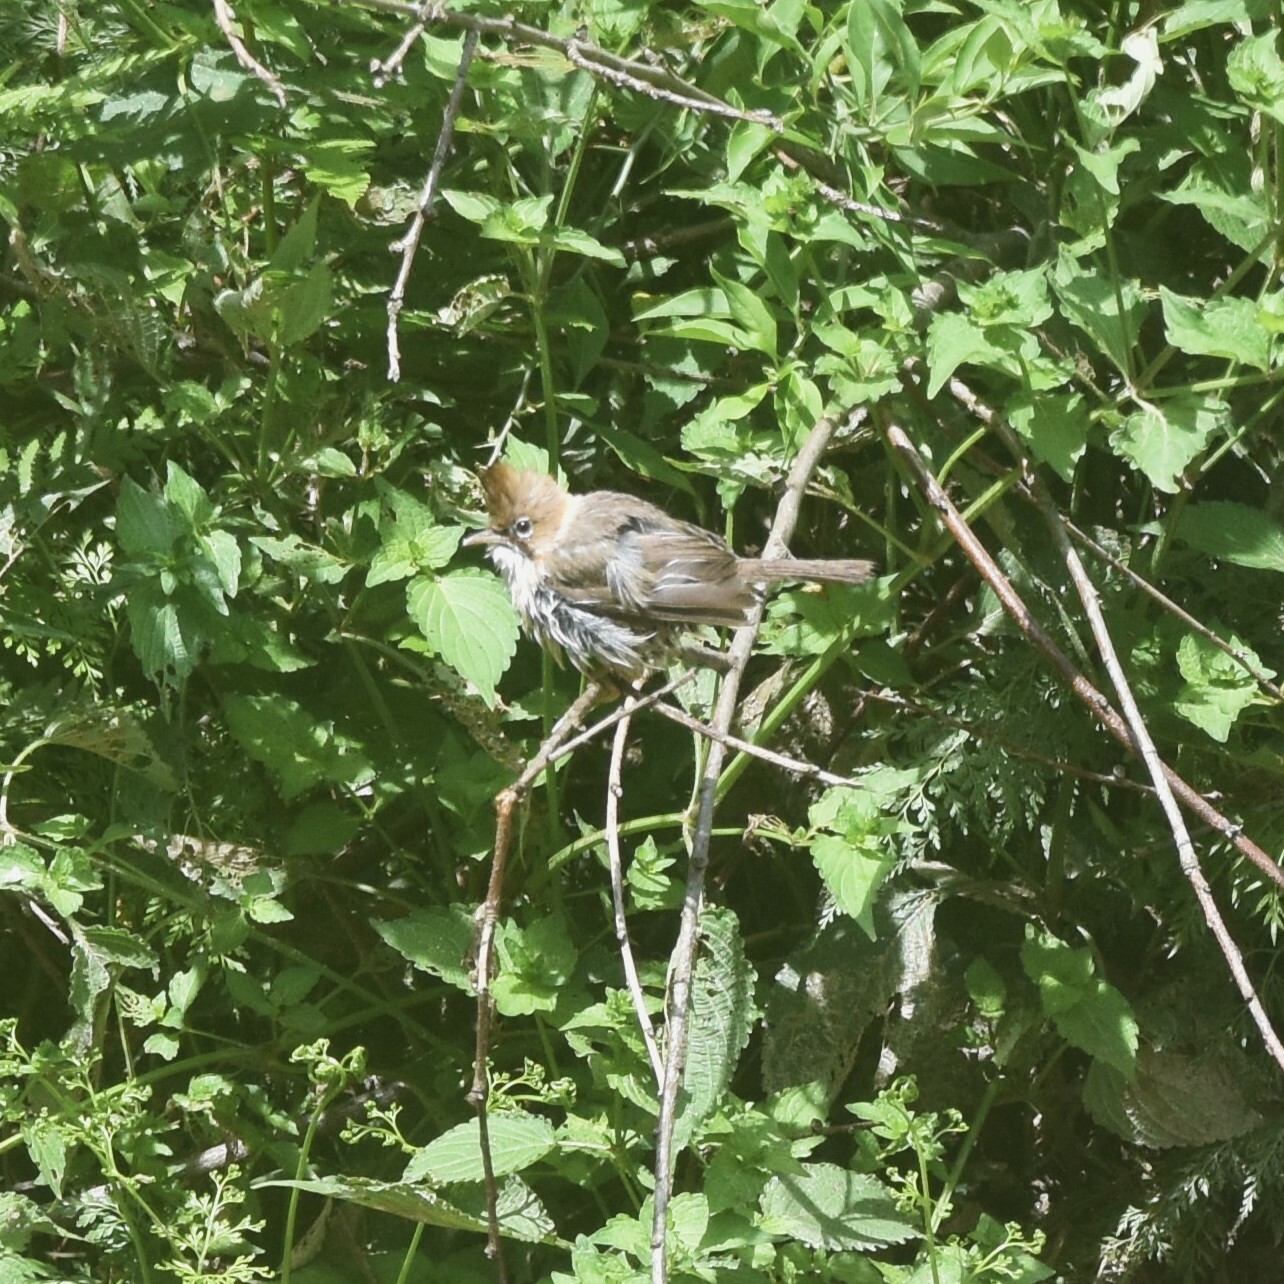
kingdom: Animalia
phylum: Chordata
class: Aves
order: Passeriformes
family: Zosteropidae
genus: Yuhina
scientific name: Yuhina flavicollis
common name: Whiskered yuhina
